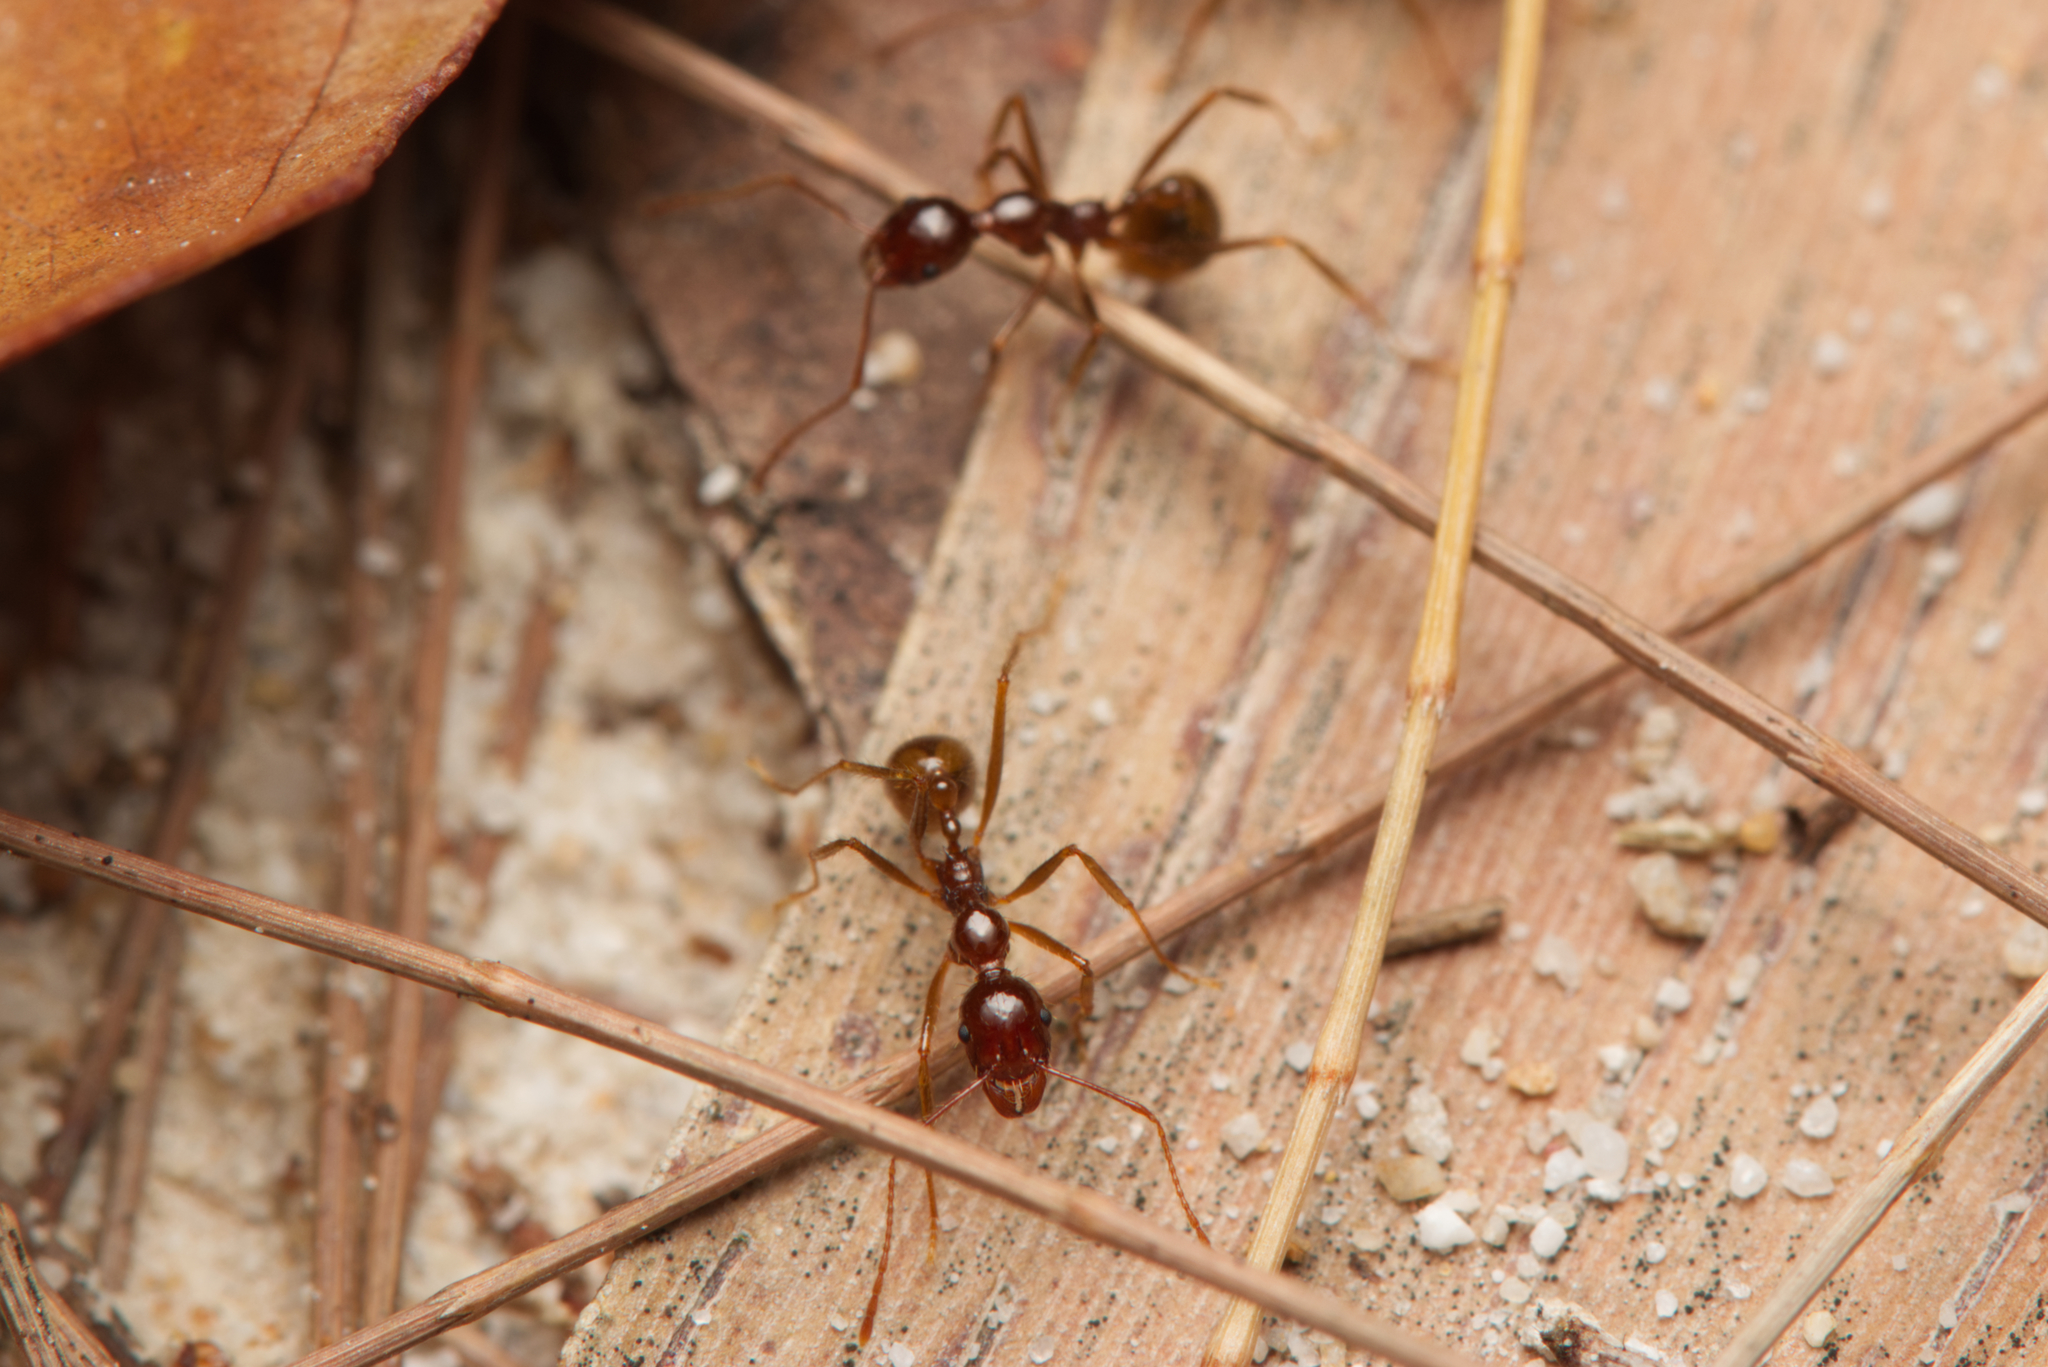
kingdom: Animalia
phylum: Arthropoda
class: Insecta
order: Hymenoptera
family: Formicidae
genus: Aphaenogaster
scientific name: Aphaenogaster longiceps
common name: Funnel ant
